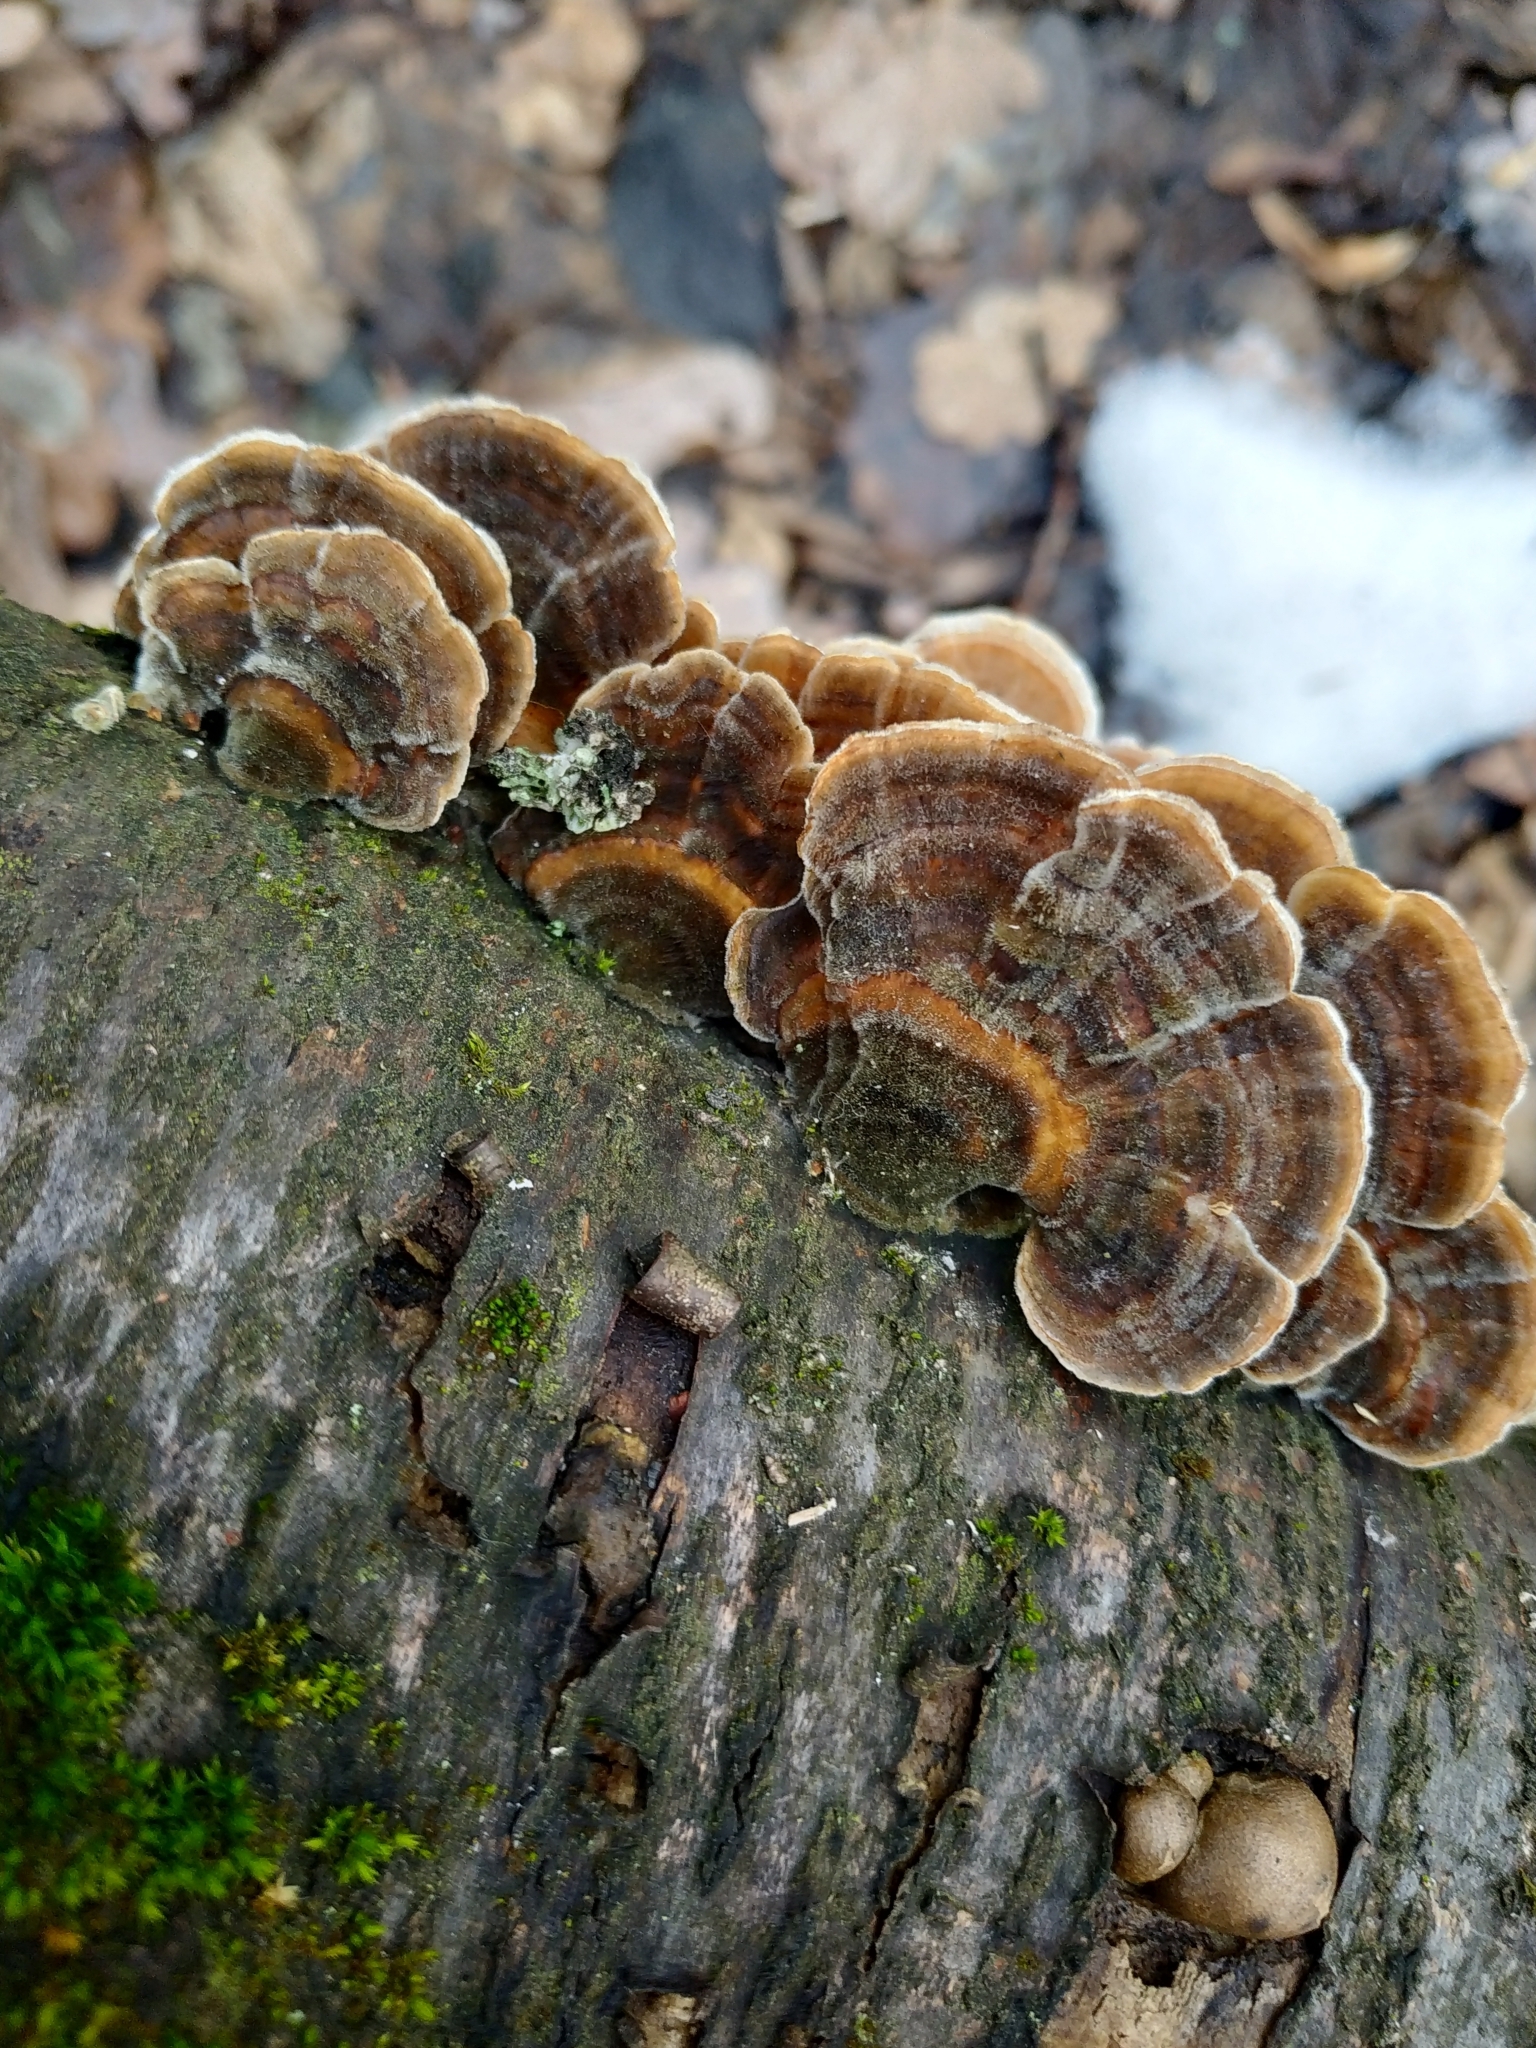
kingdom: Fungi
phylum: Basidiomycota
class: Agaricomycetes
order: Polyporales
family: Polyporaceae
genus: Trametes
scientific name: Trametes versicolor
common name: Turkeytail
